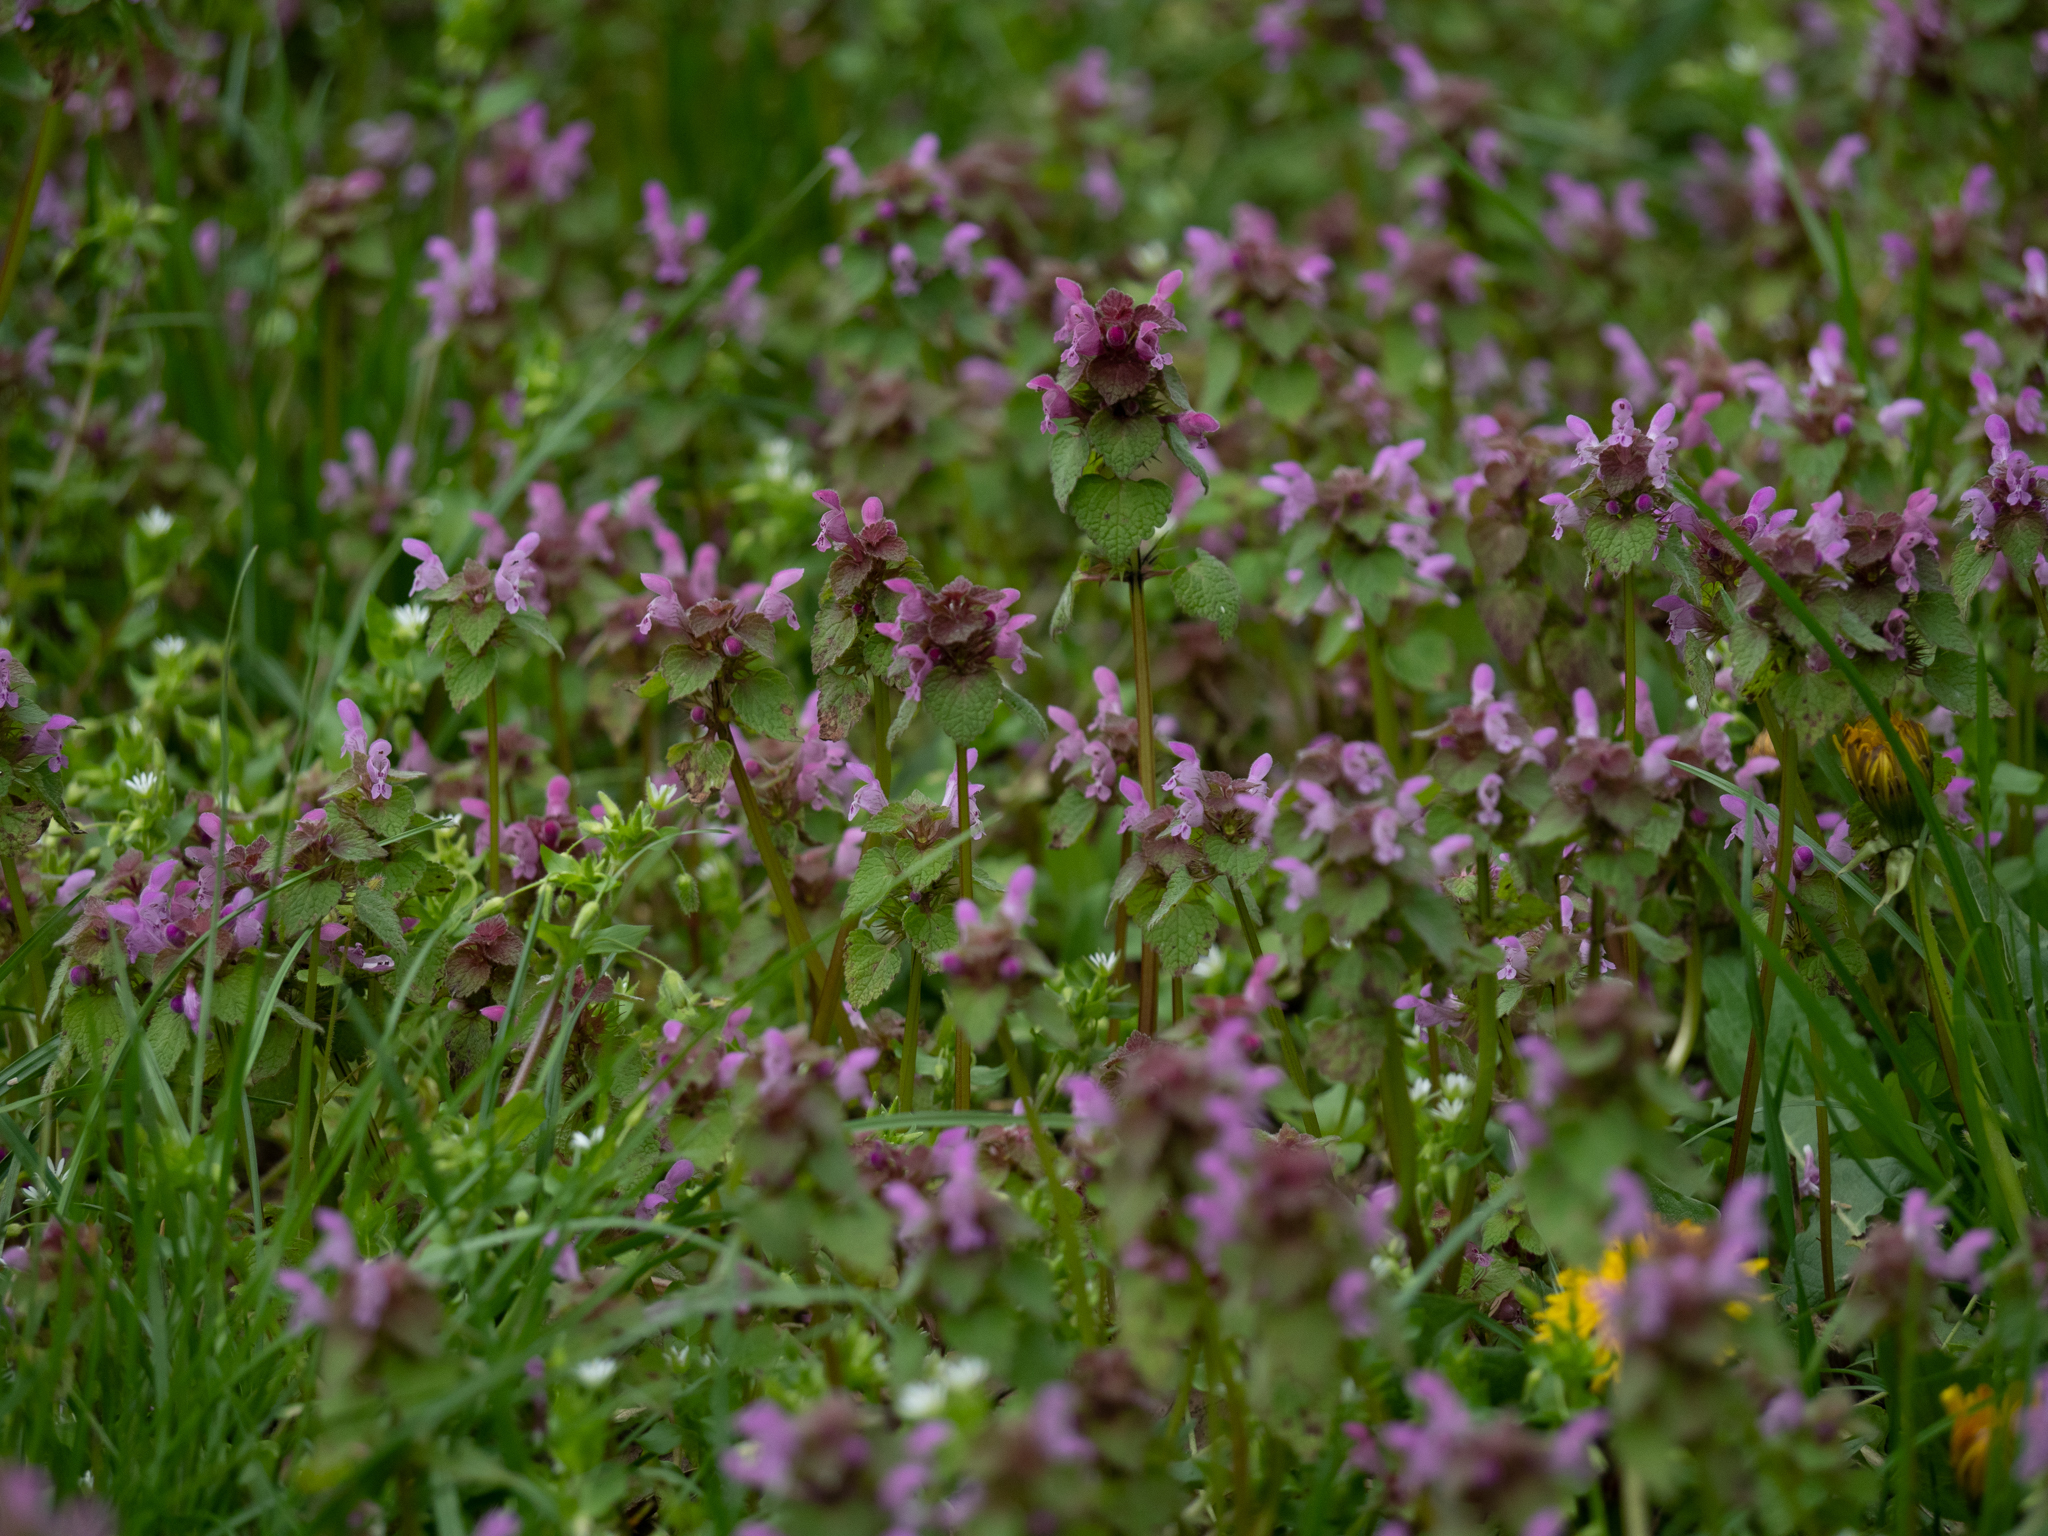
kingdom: Plantae
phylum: Tracheophyta
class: Magnoliopsida
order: Lamiales
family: Lamiaceae
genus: Lamium
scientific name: Lamium purpureum
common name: Red dead-nettle
